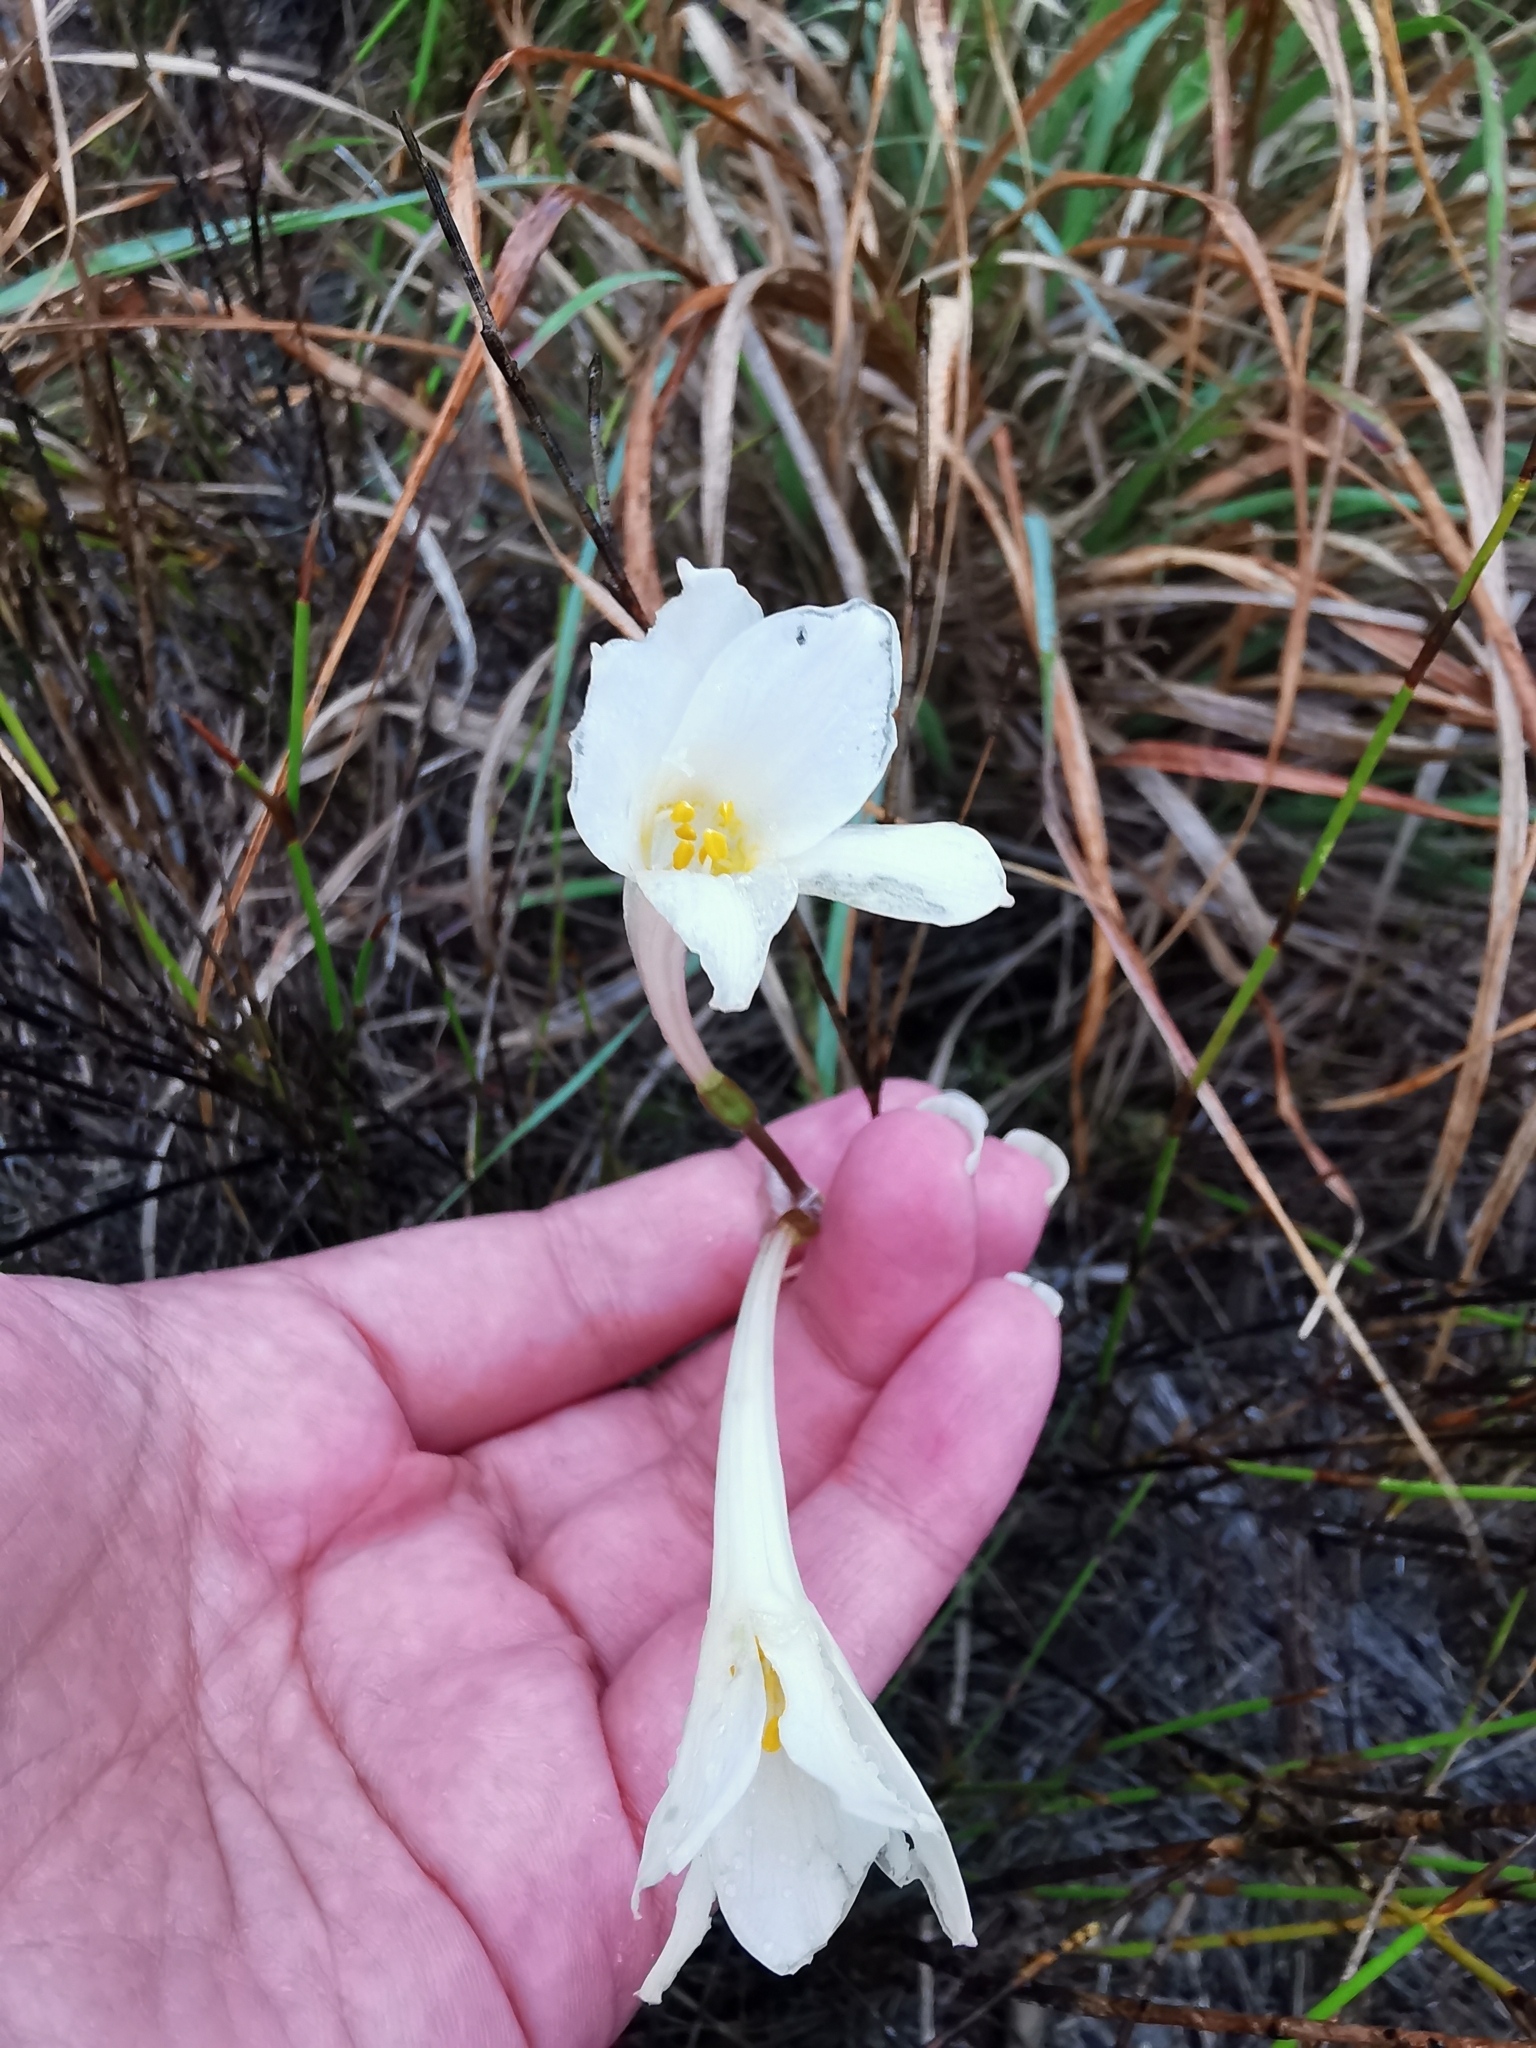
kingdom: Plantae
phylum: Tracheophyta
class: Liliopsida
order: Asparagales
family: Amaryllidaceae
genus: Cyrtanthus
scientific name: Cyrtanthus leucanthus
